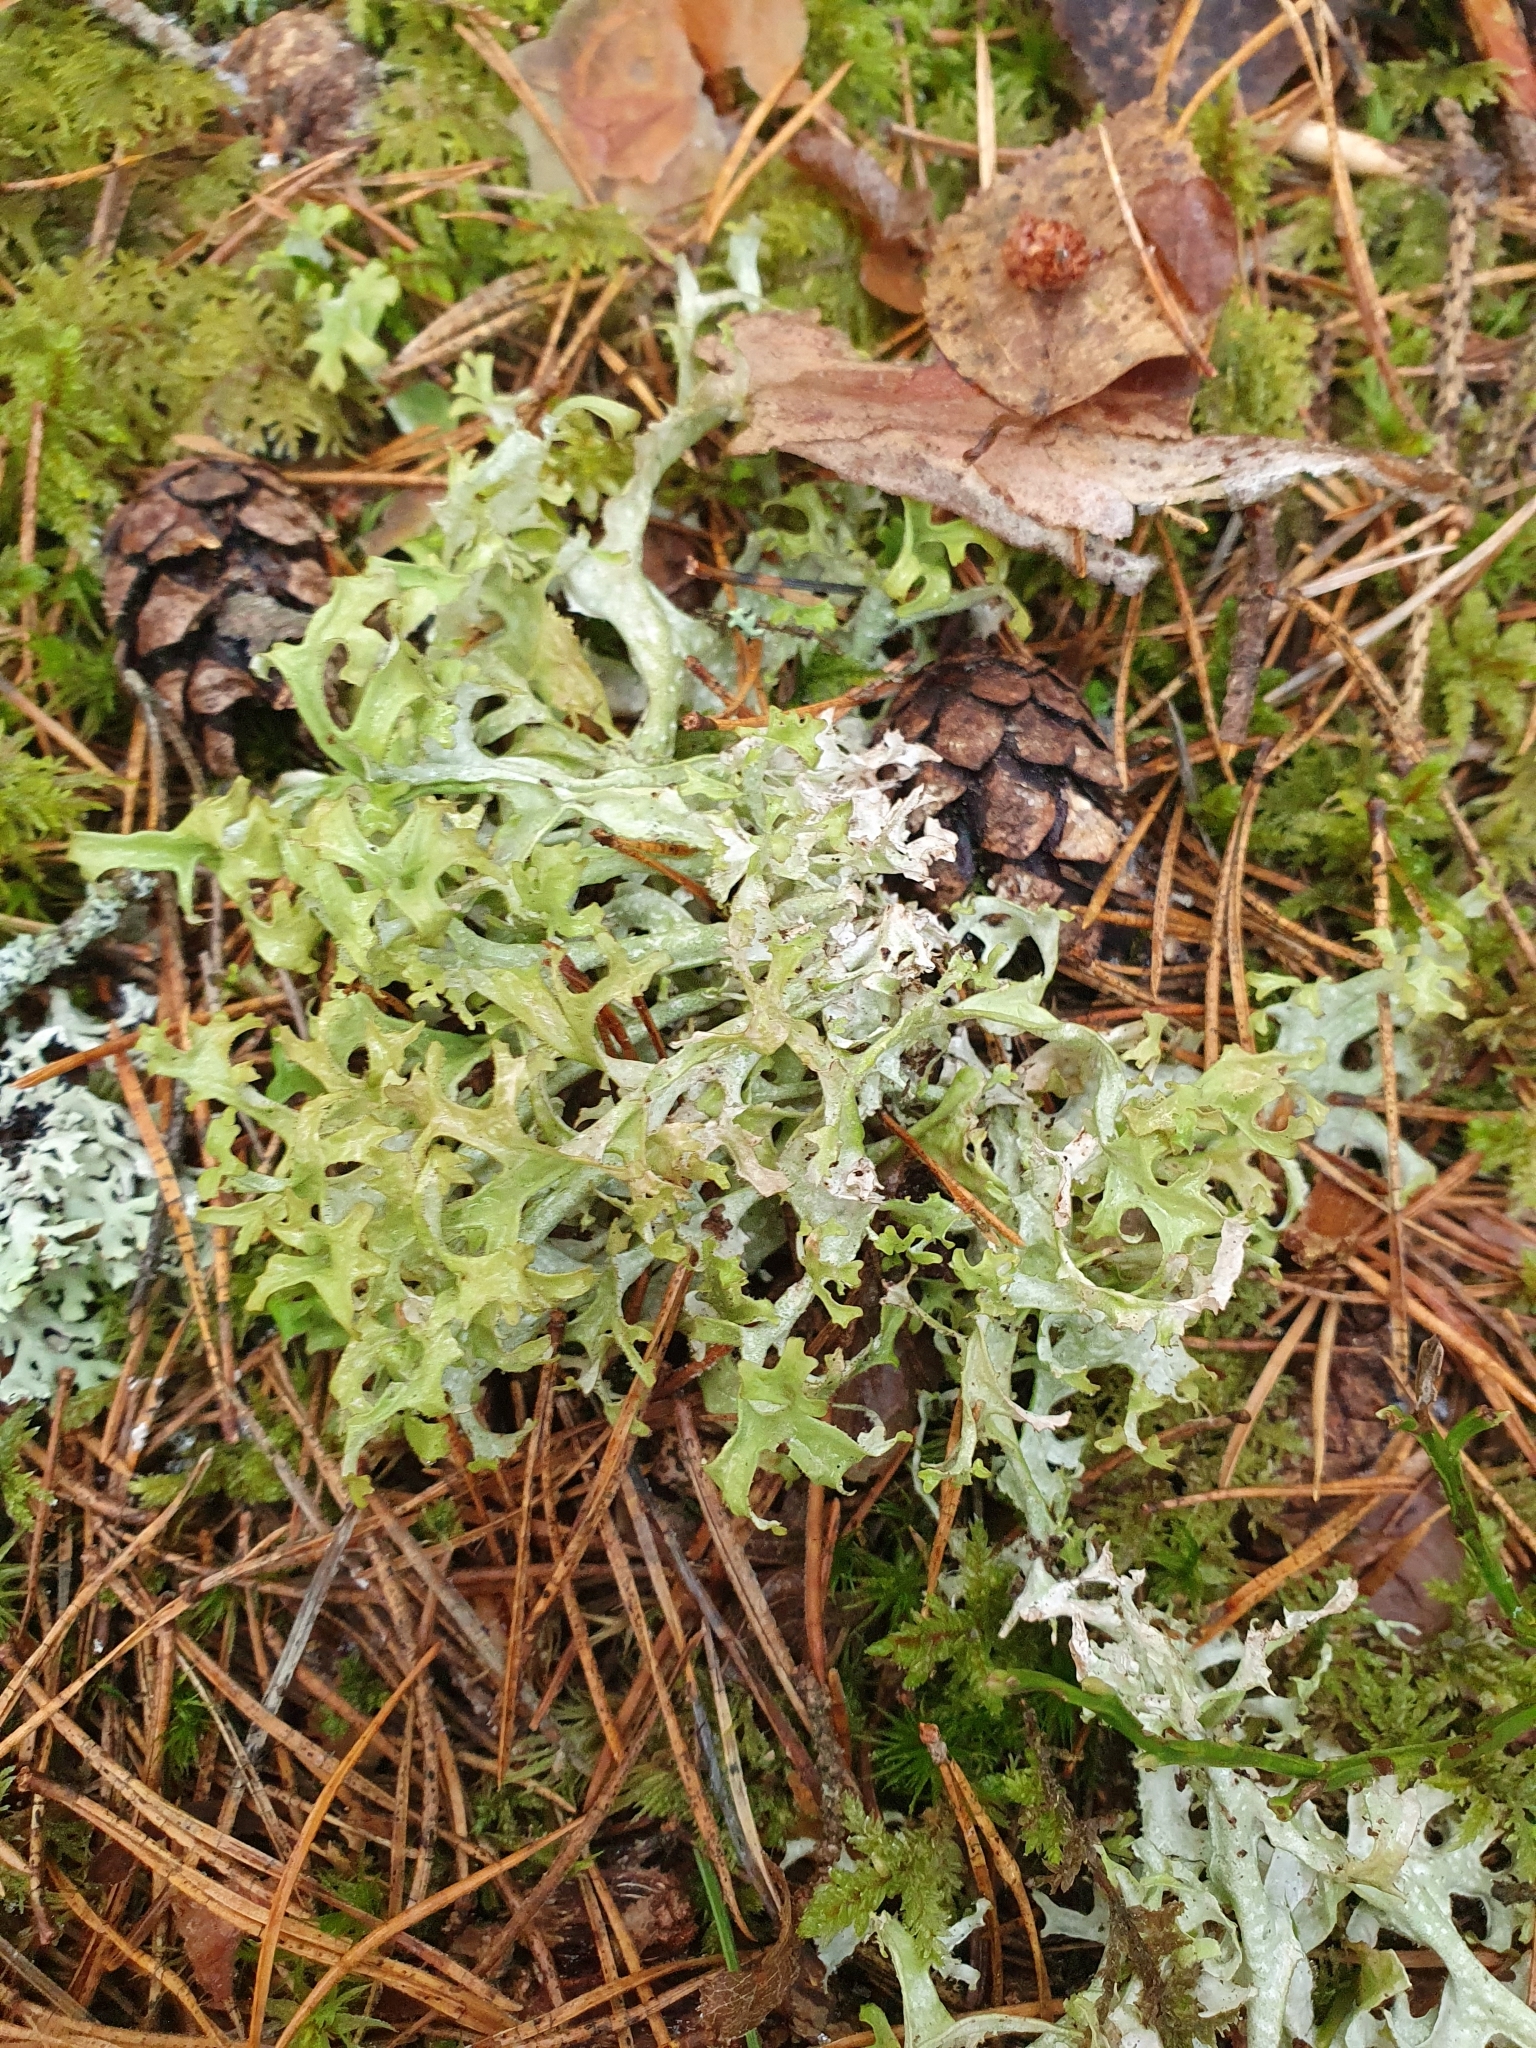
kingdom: Fungi
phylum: Ascomycota
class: Lecanoromycetes
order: Lecanorales
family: Parmeliaceae
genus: Cetraria
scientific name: Cetraria islandica
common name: Iceland lichen
